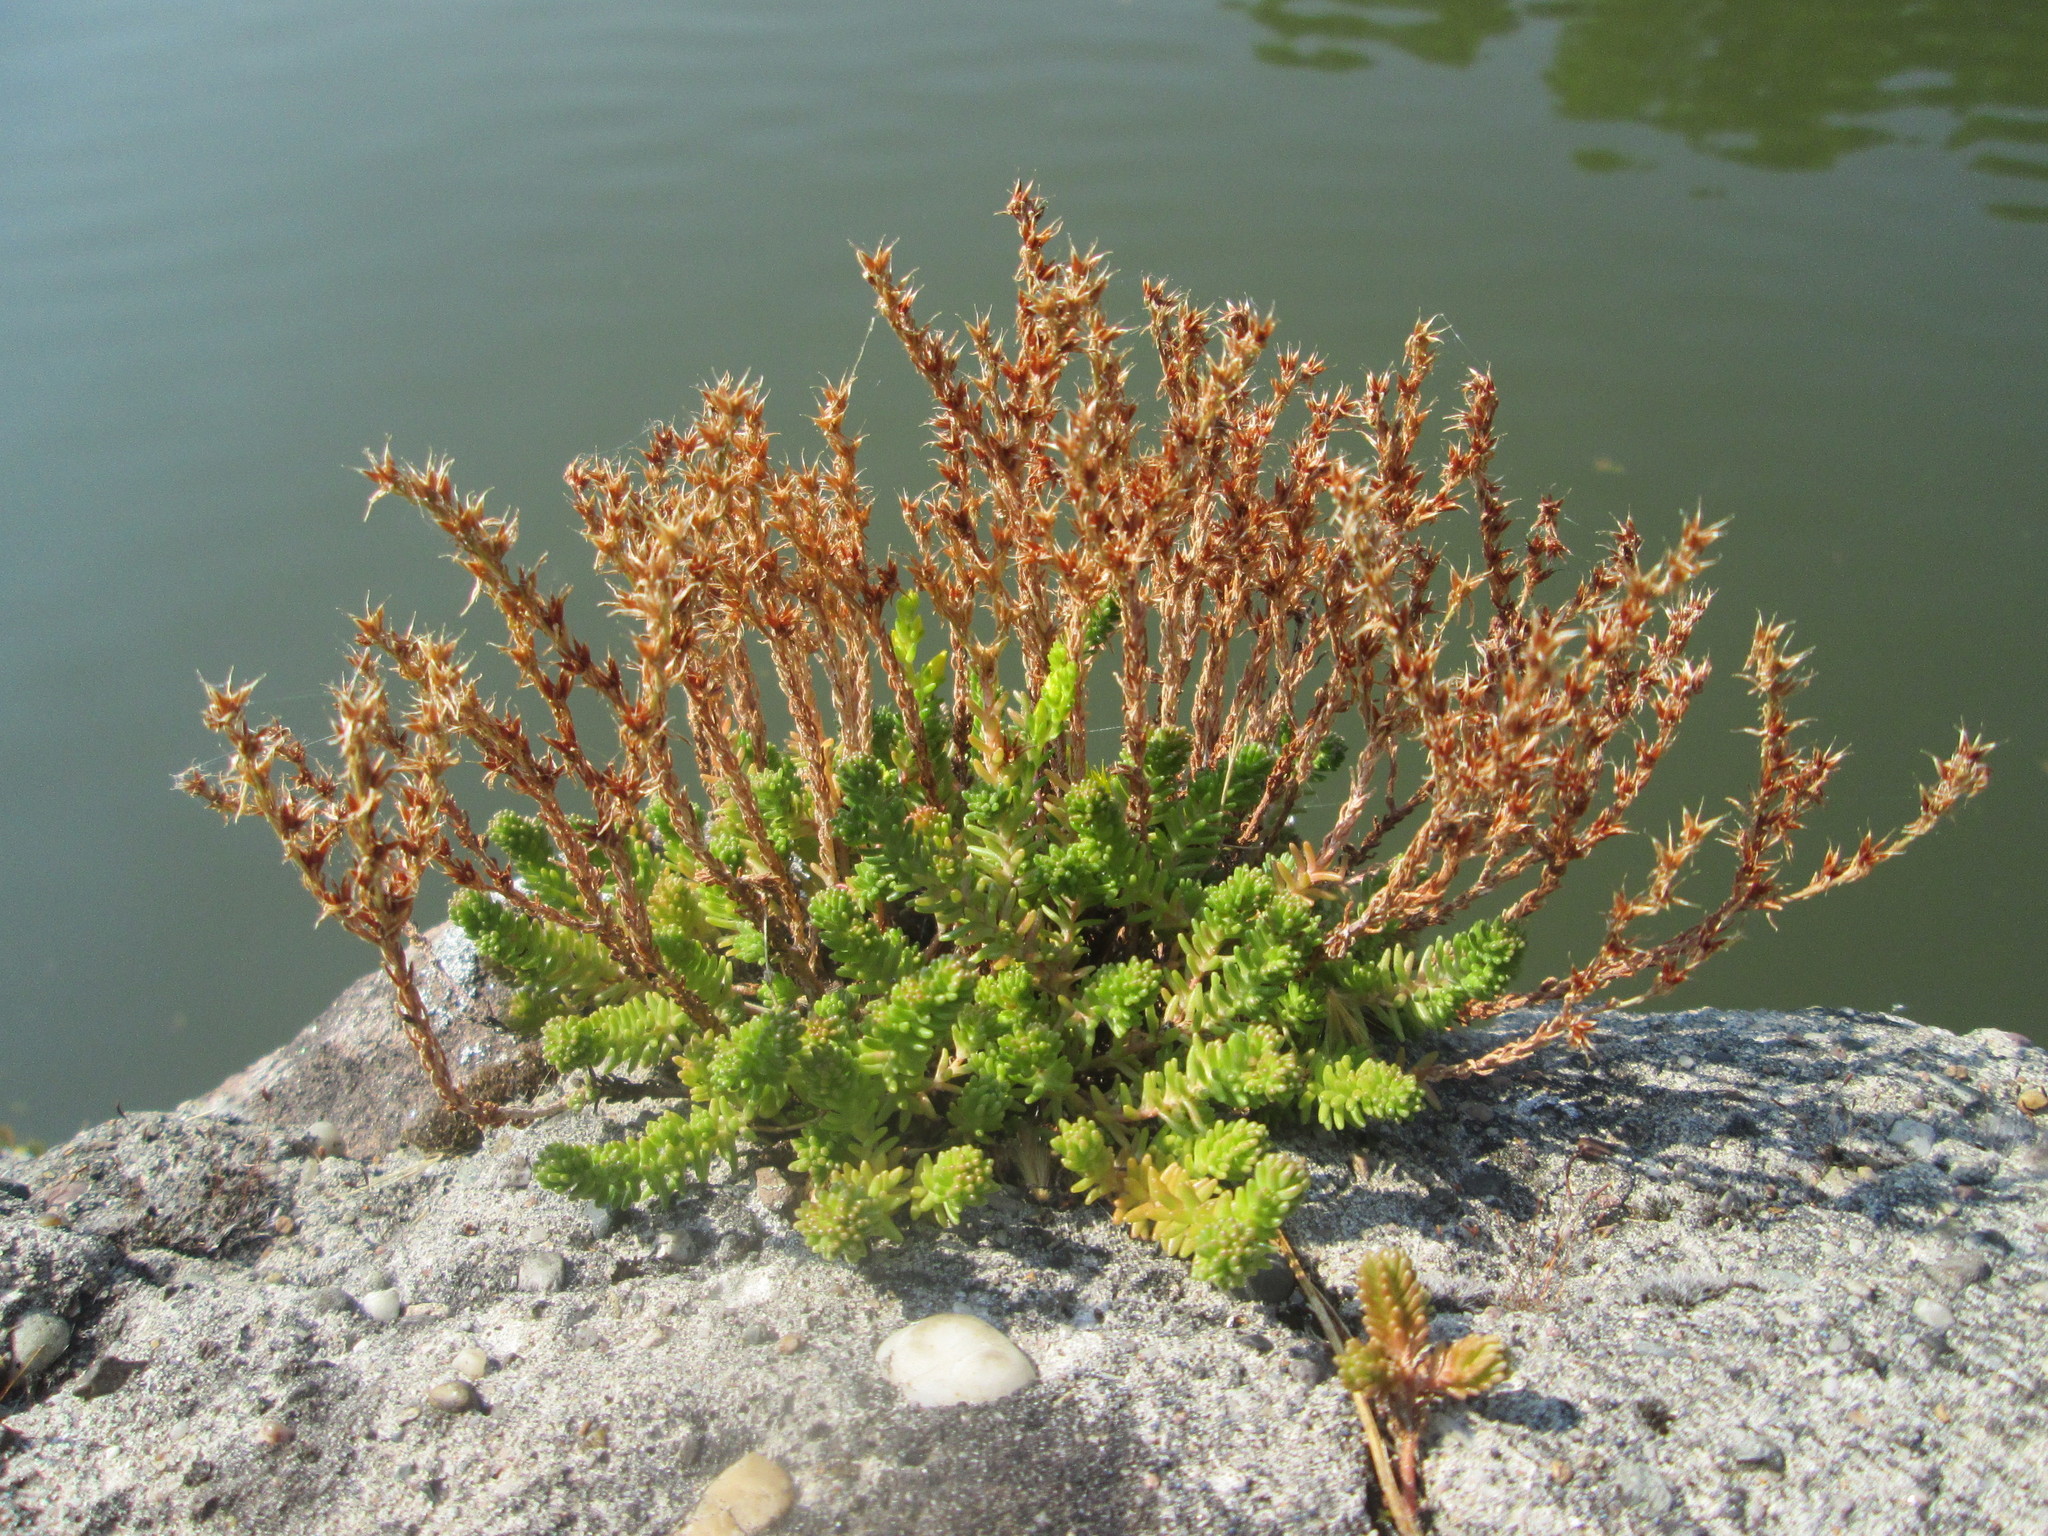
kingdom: Plantae
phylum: Tracheophyta
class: Magnoliopsida
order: Saxifragales
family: Crassulaceae
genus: Sedum
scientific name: Sedum sexangulare
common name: Tasteless stonecrop
